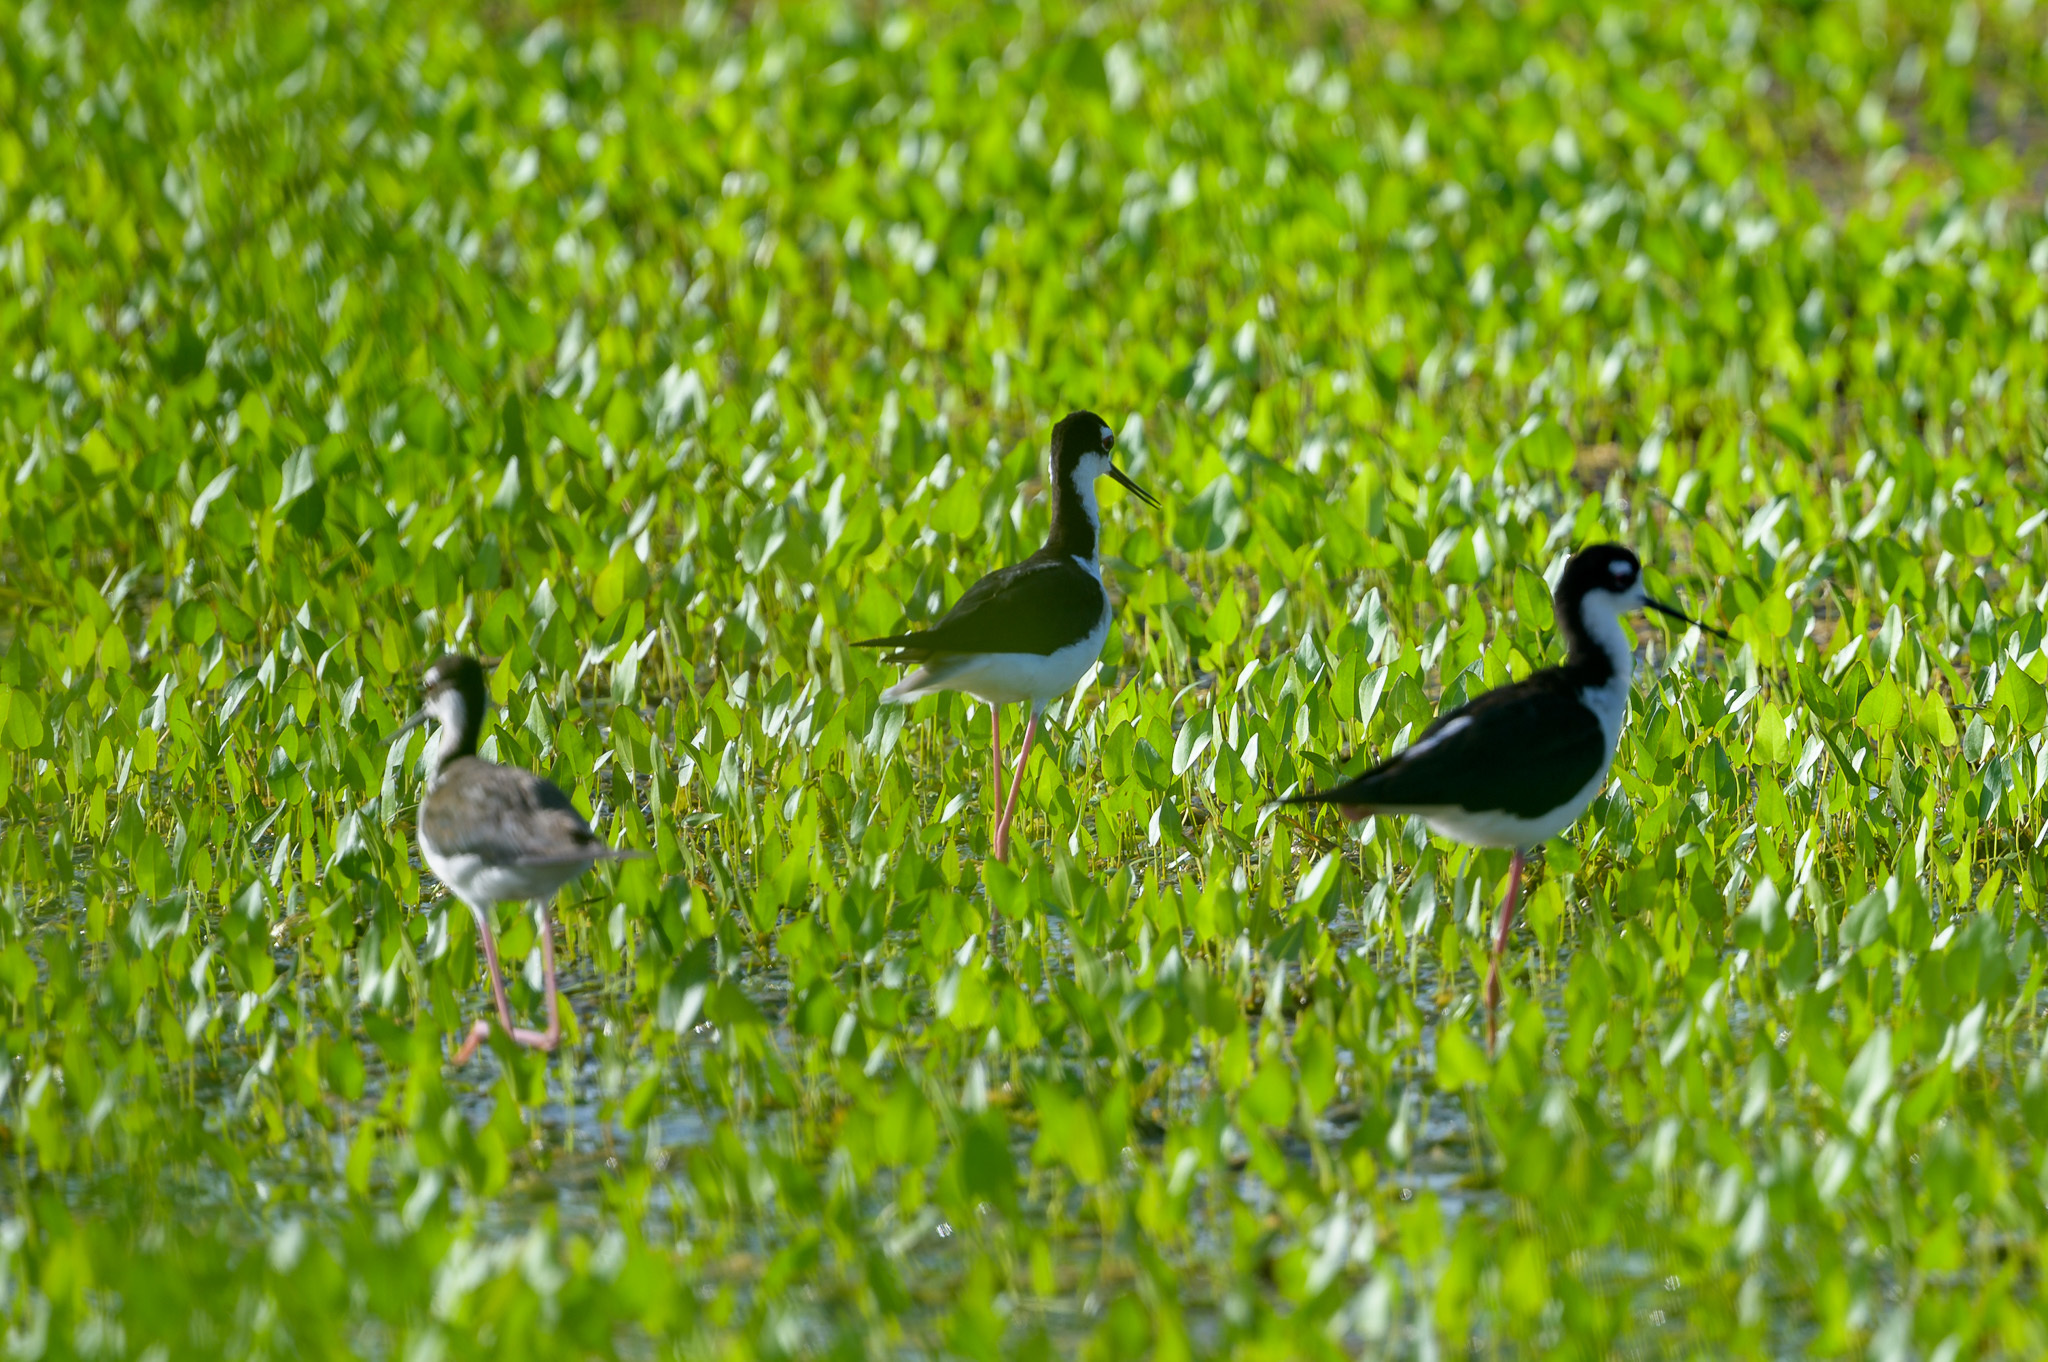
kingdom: Animalia
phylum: Chordata
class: Aves
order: Charadriiformes
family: Recurvirostridae
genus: Himantopus
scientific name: Himantopus mexicanus
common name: Black-necked stilt
